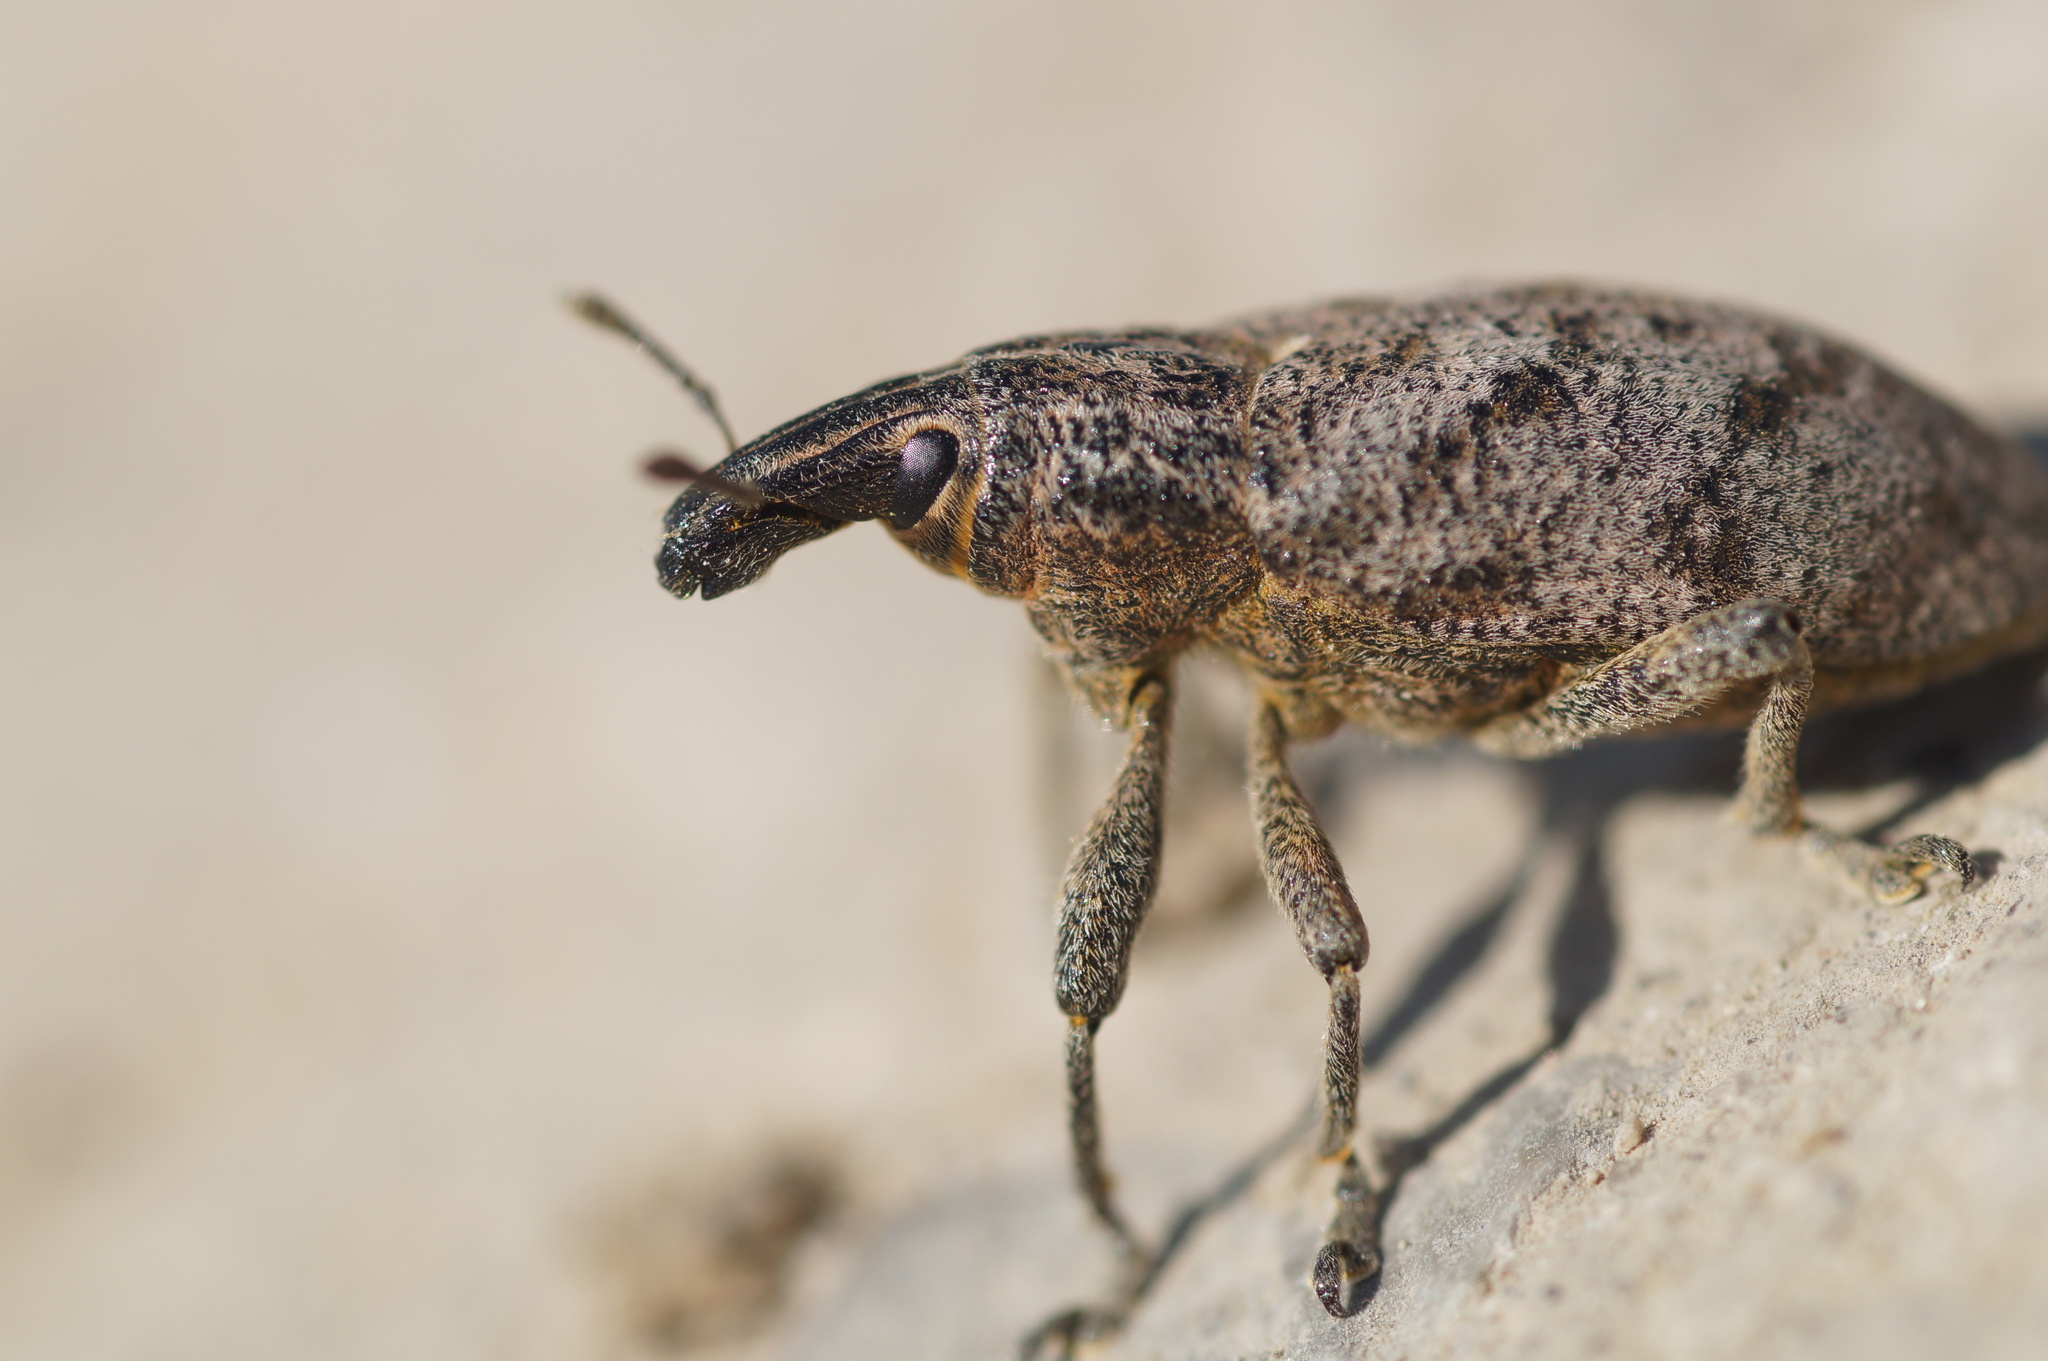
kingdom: Animalia
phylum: Arthropoda
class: Insecta
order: Coleoptera
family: Curculionidae
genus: Cleonis
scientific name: Cleonis pigra
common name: Large thistle weevil
